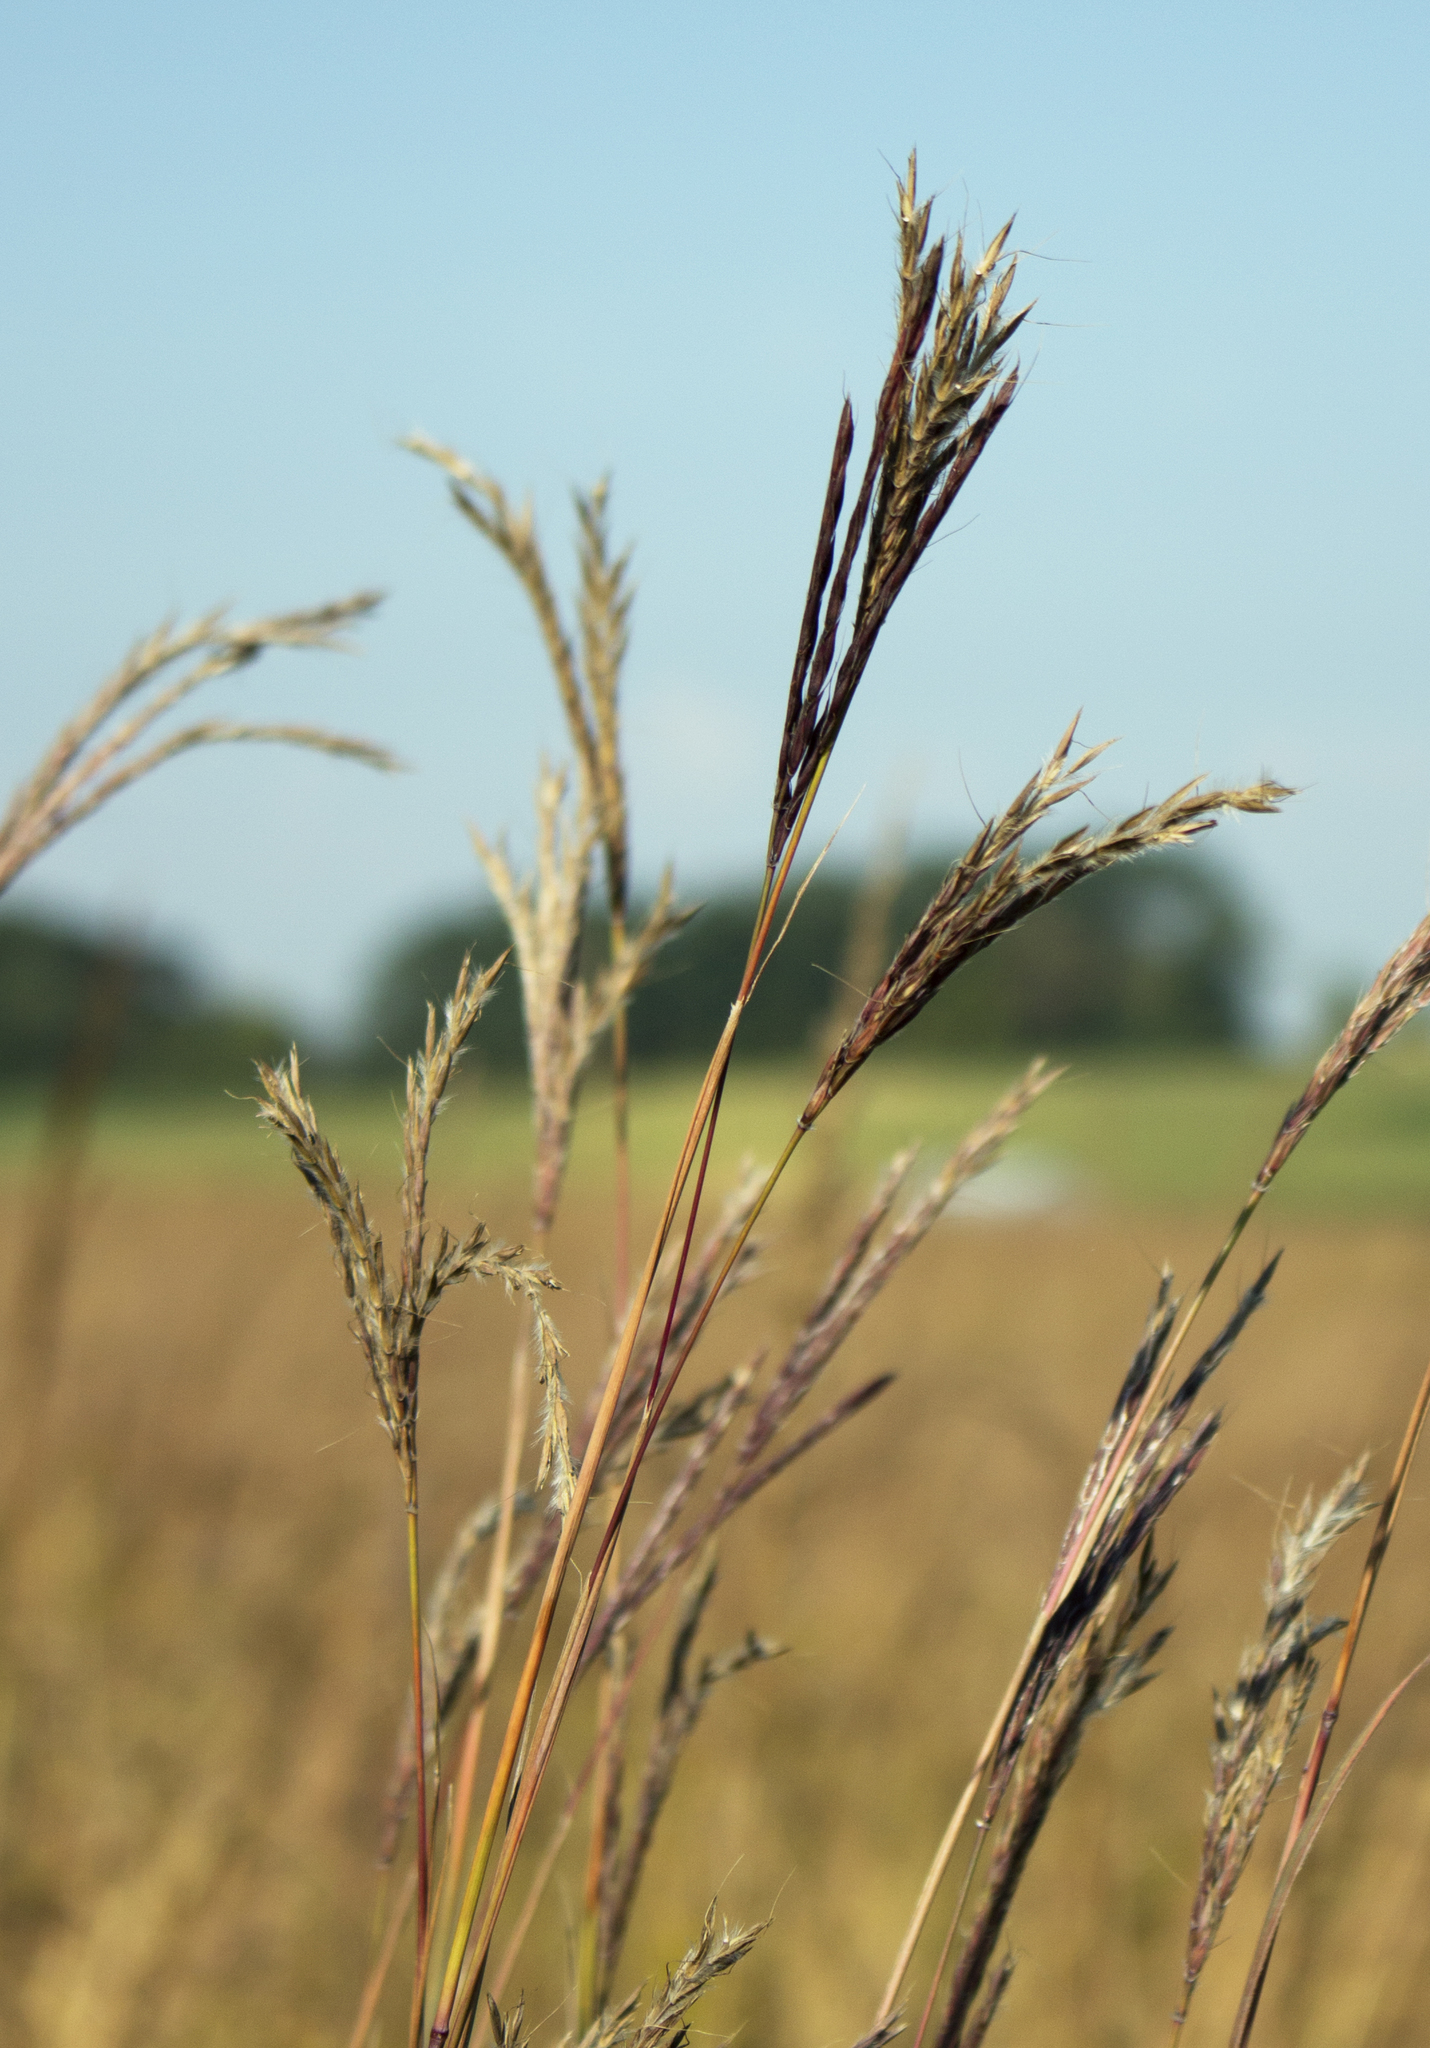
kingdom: Plantae
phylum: Tracheophyta
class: Liliopsida
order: Poales
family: Poaceae
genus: Andropogon
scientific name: Andropogon gerardi
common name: Big bluestem
